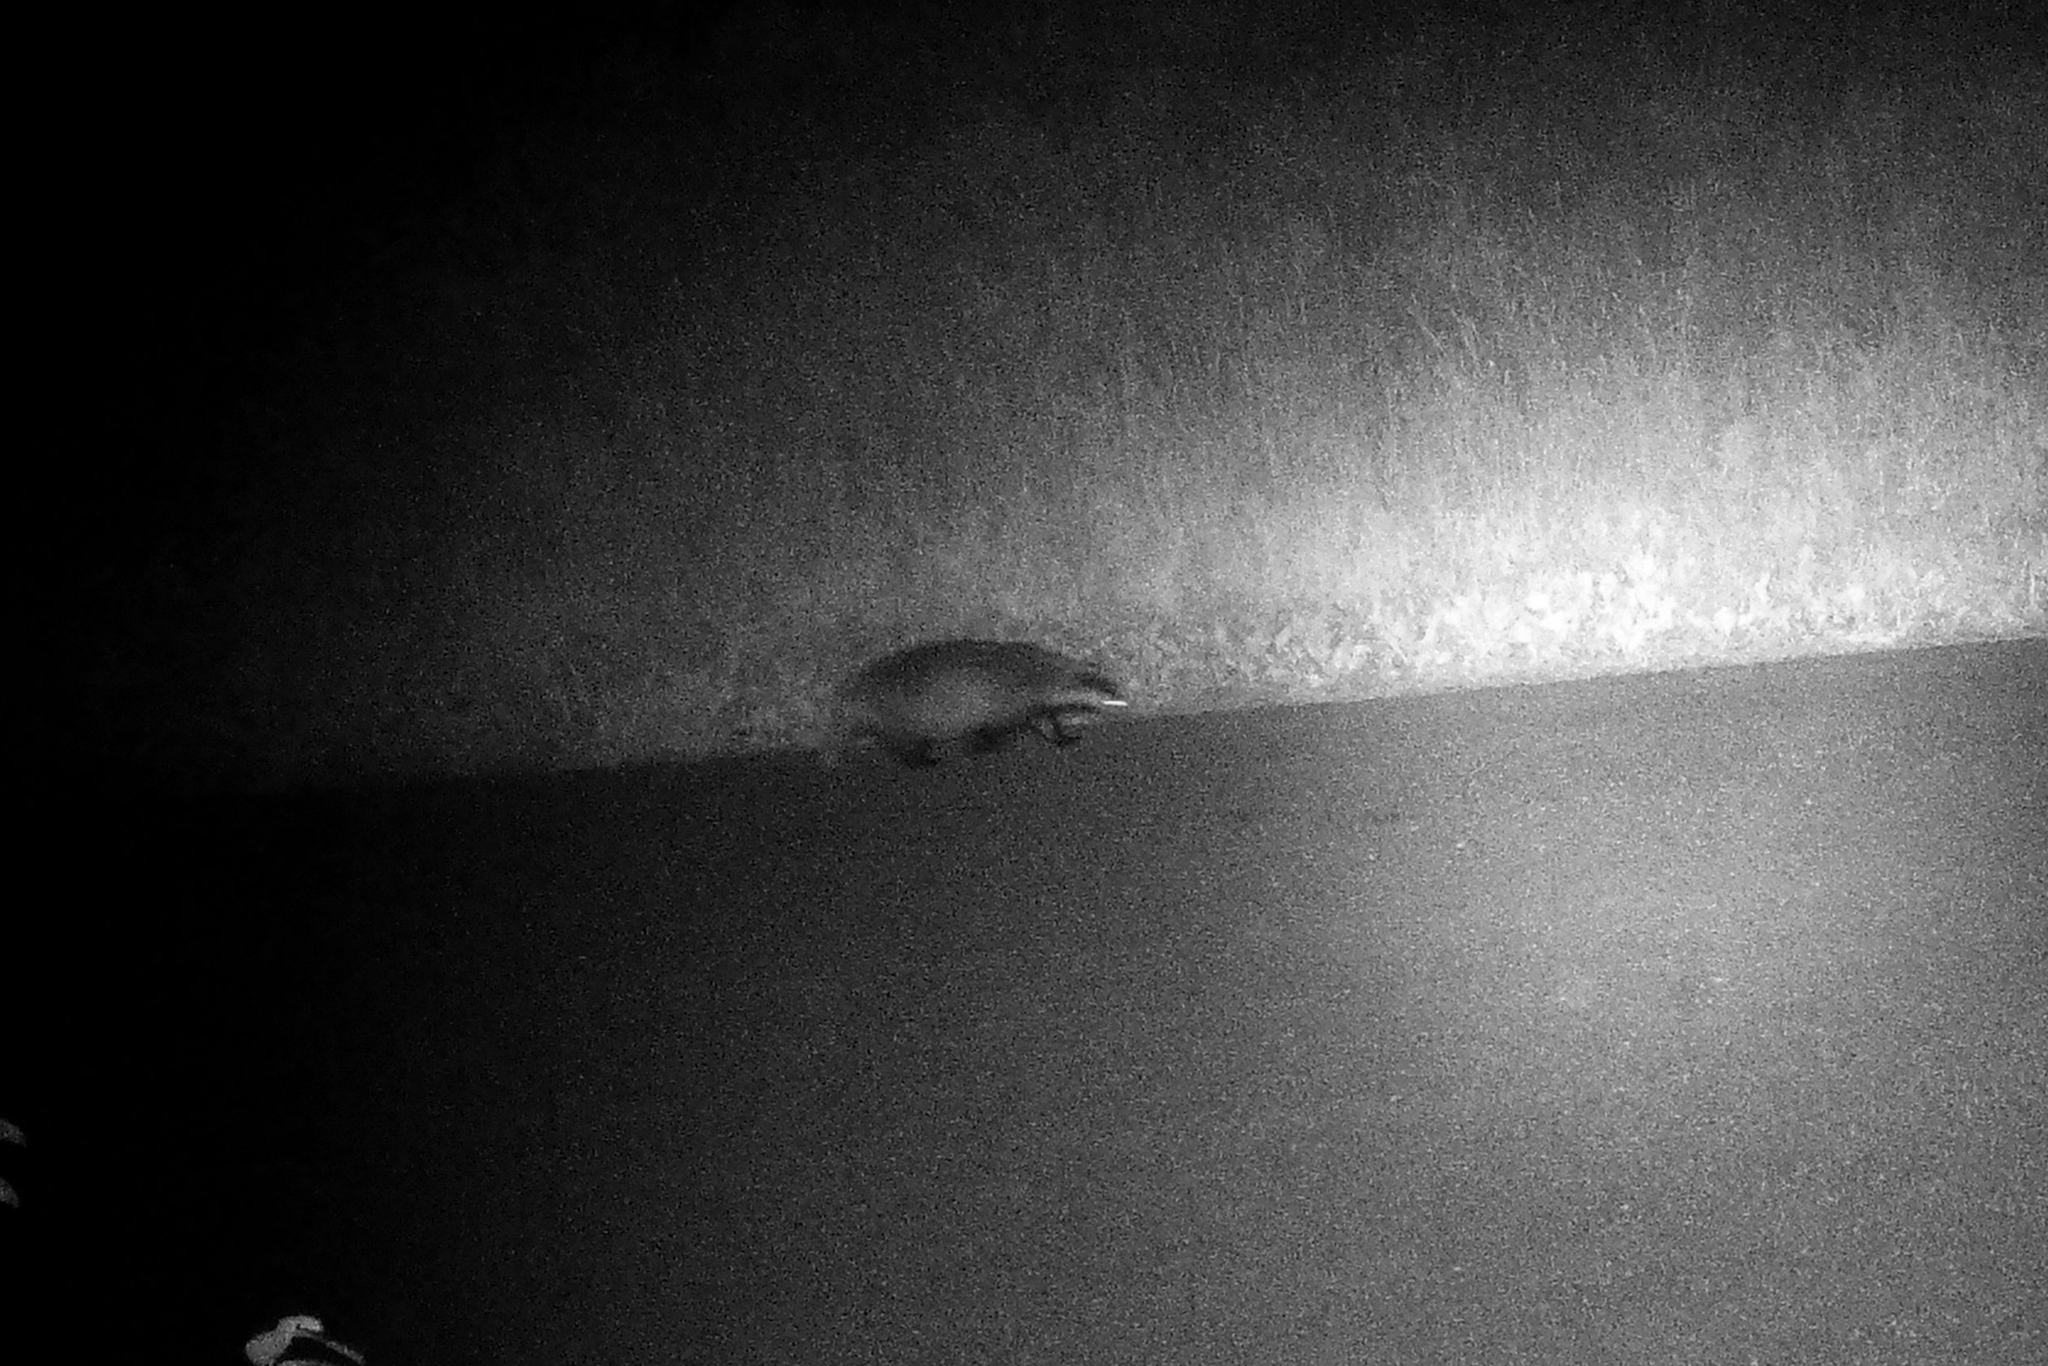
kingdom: Animalia
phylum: Chordata
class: Mammalia
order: Carnivora
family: Mustelidae
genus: Meles
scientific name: Meles meles
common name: Eurasian badger
